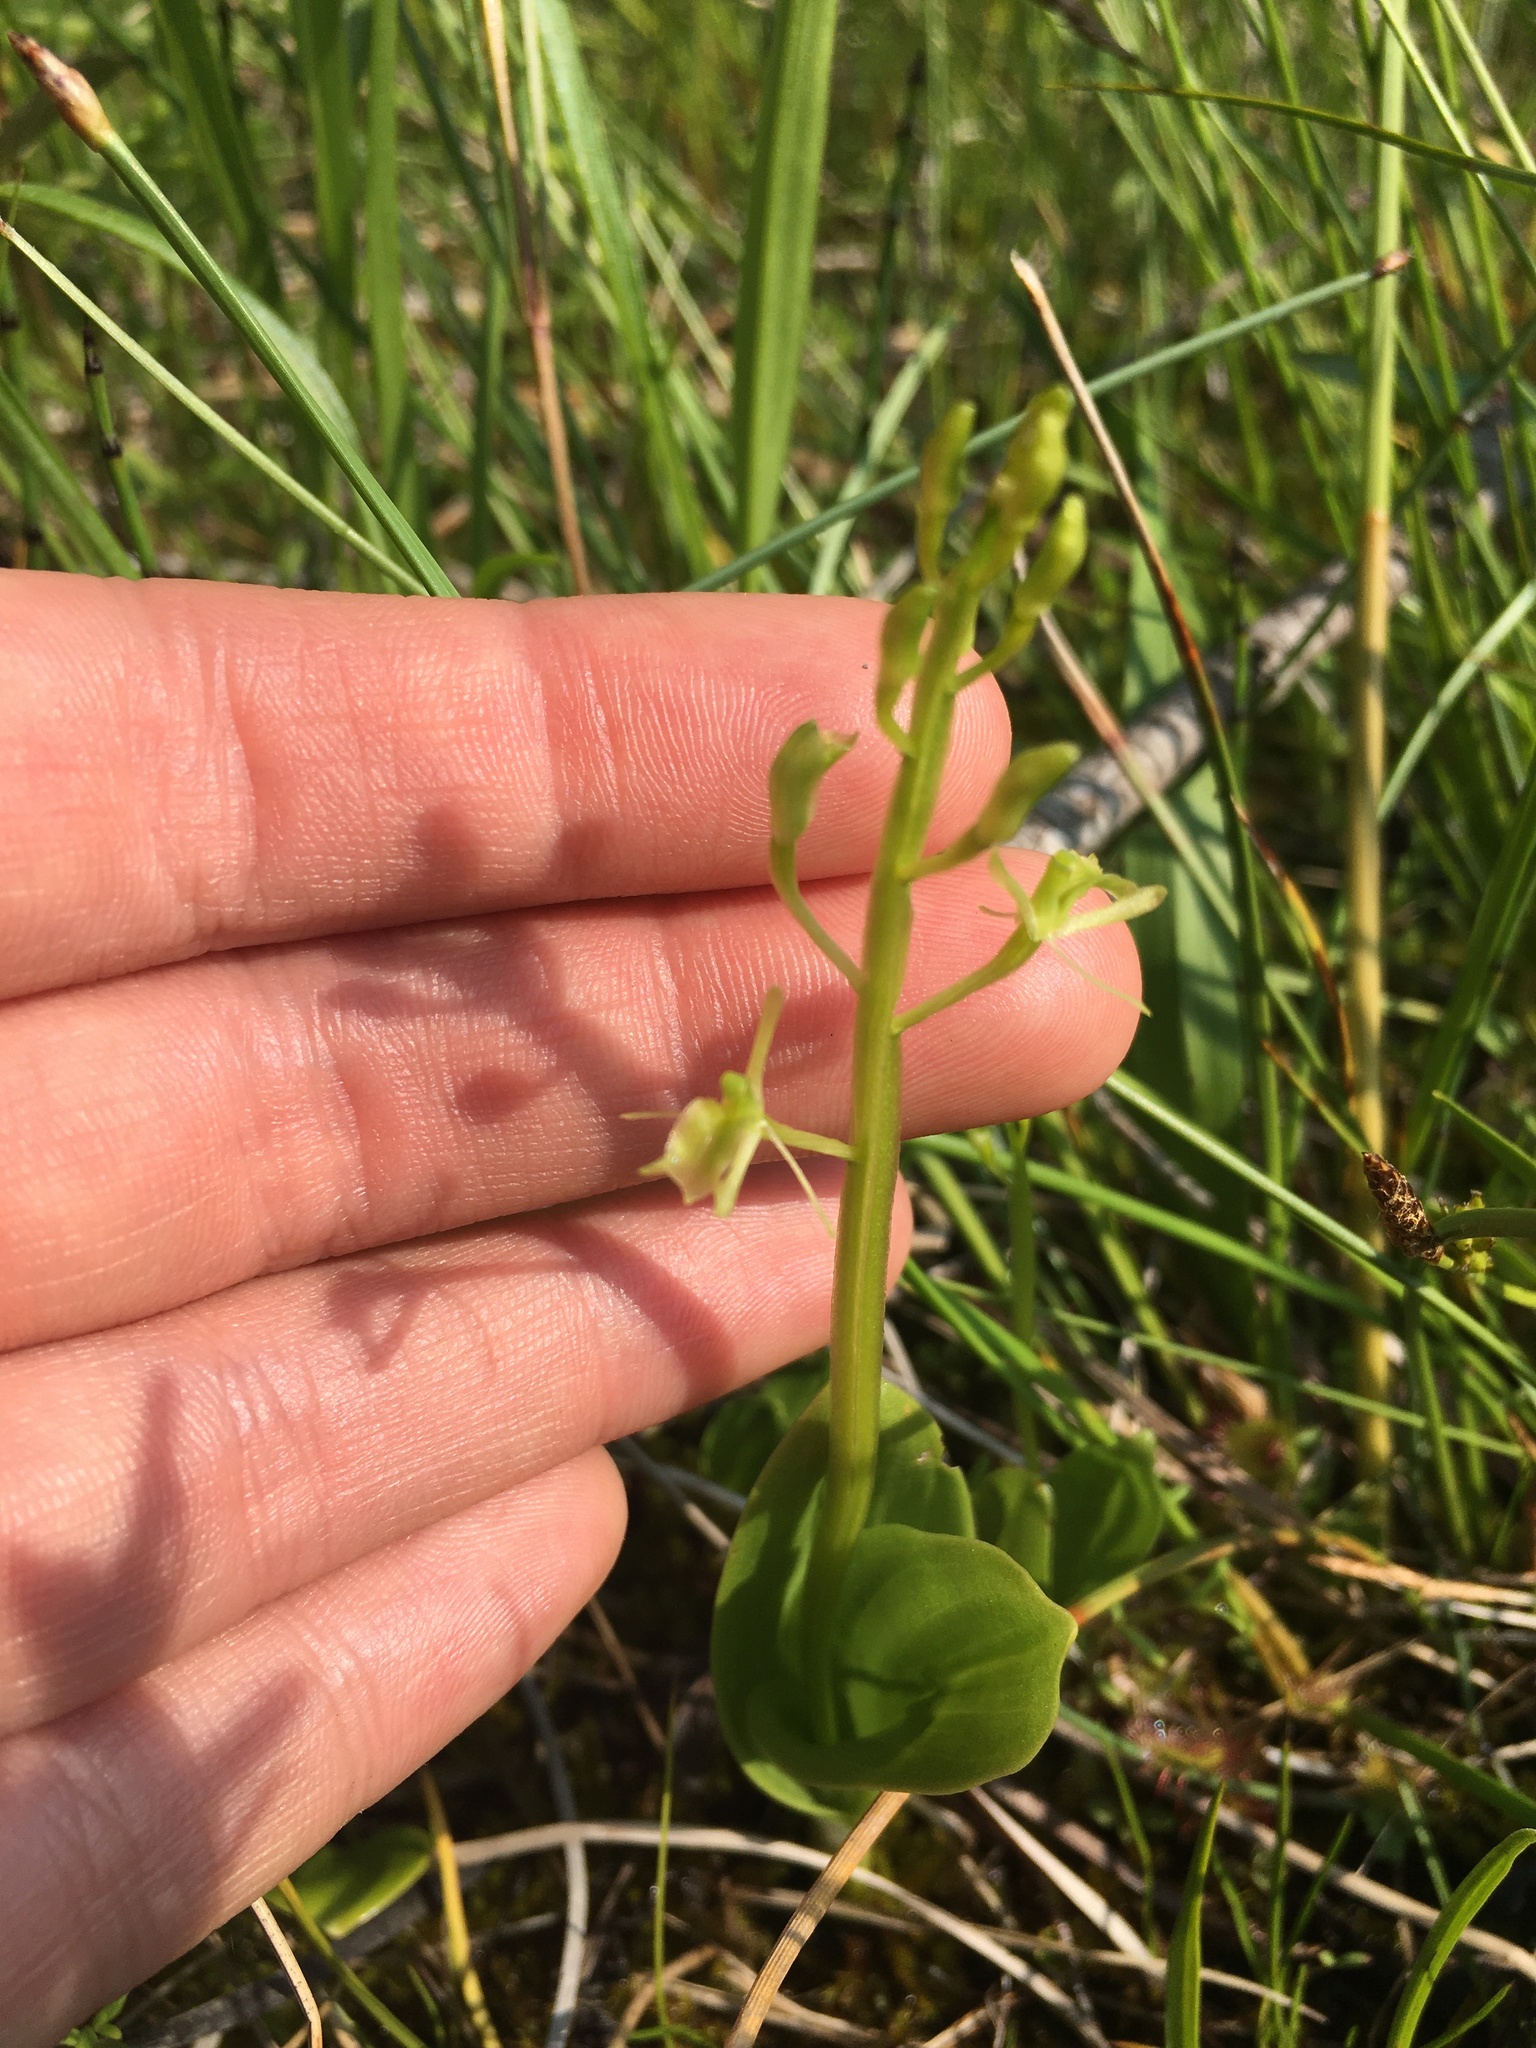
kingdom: Animalia
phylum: Arthropoda
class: Insecta
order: Coleoptera
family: Curculionidae
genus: Liparis
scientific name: Liparis loeselii
